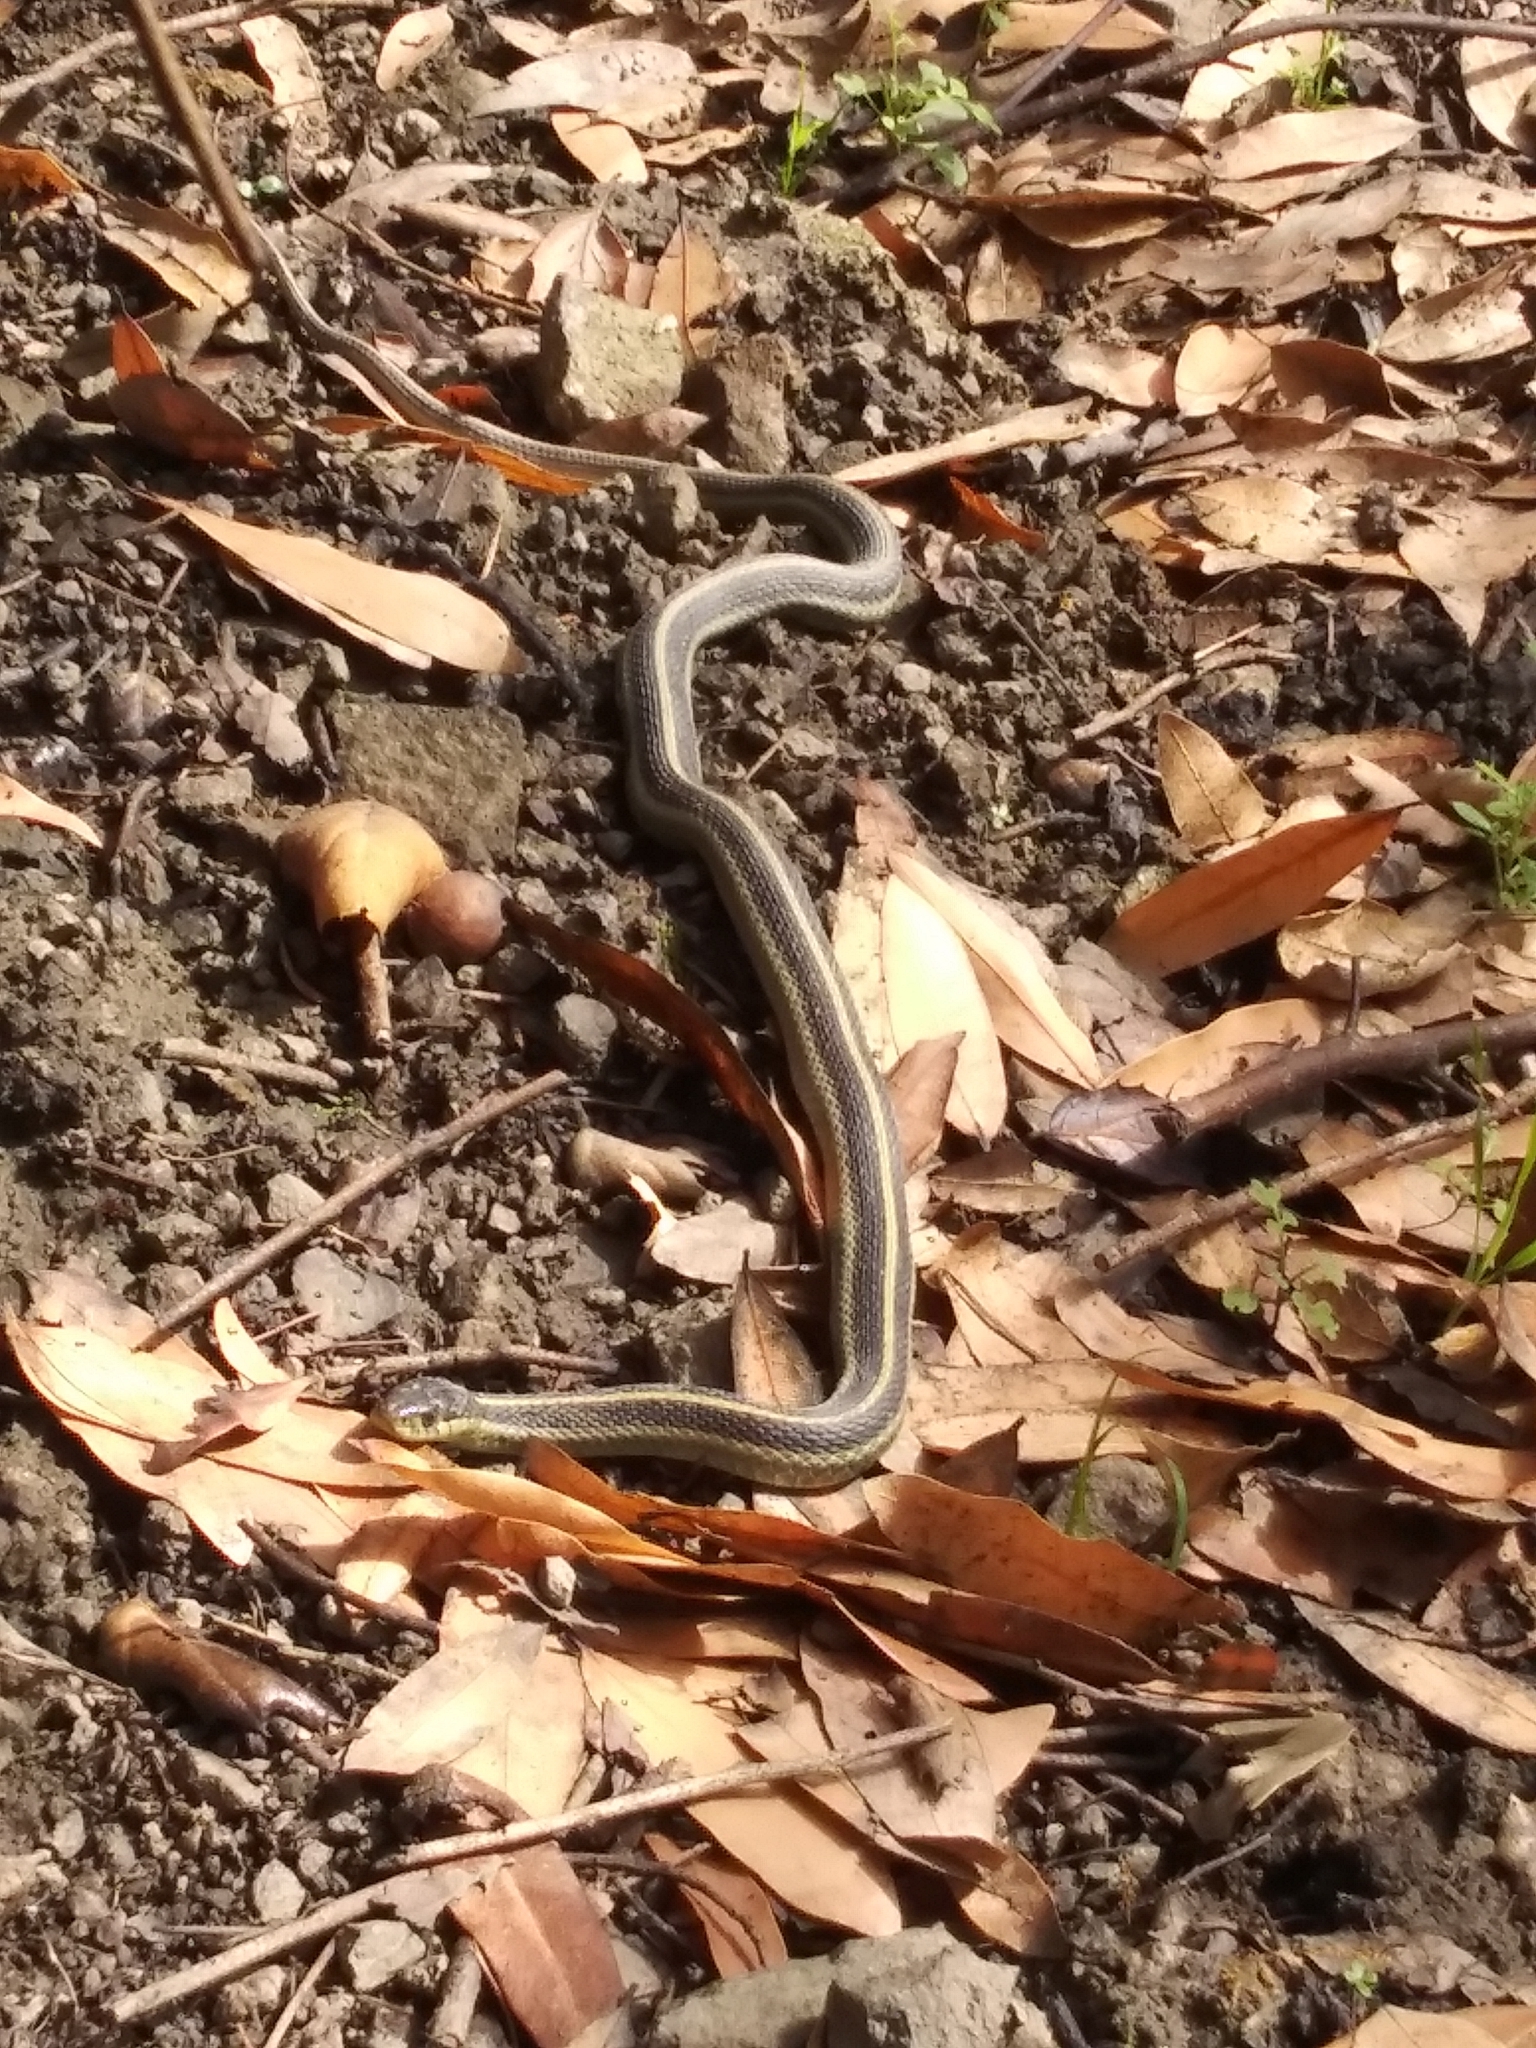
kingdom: Animalia
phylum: Chordata
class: Squamata
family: Colubridae
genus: Thamnophis
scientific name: Thamnophis elegans
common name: Western terrestrial garter snake
